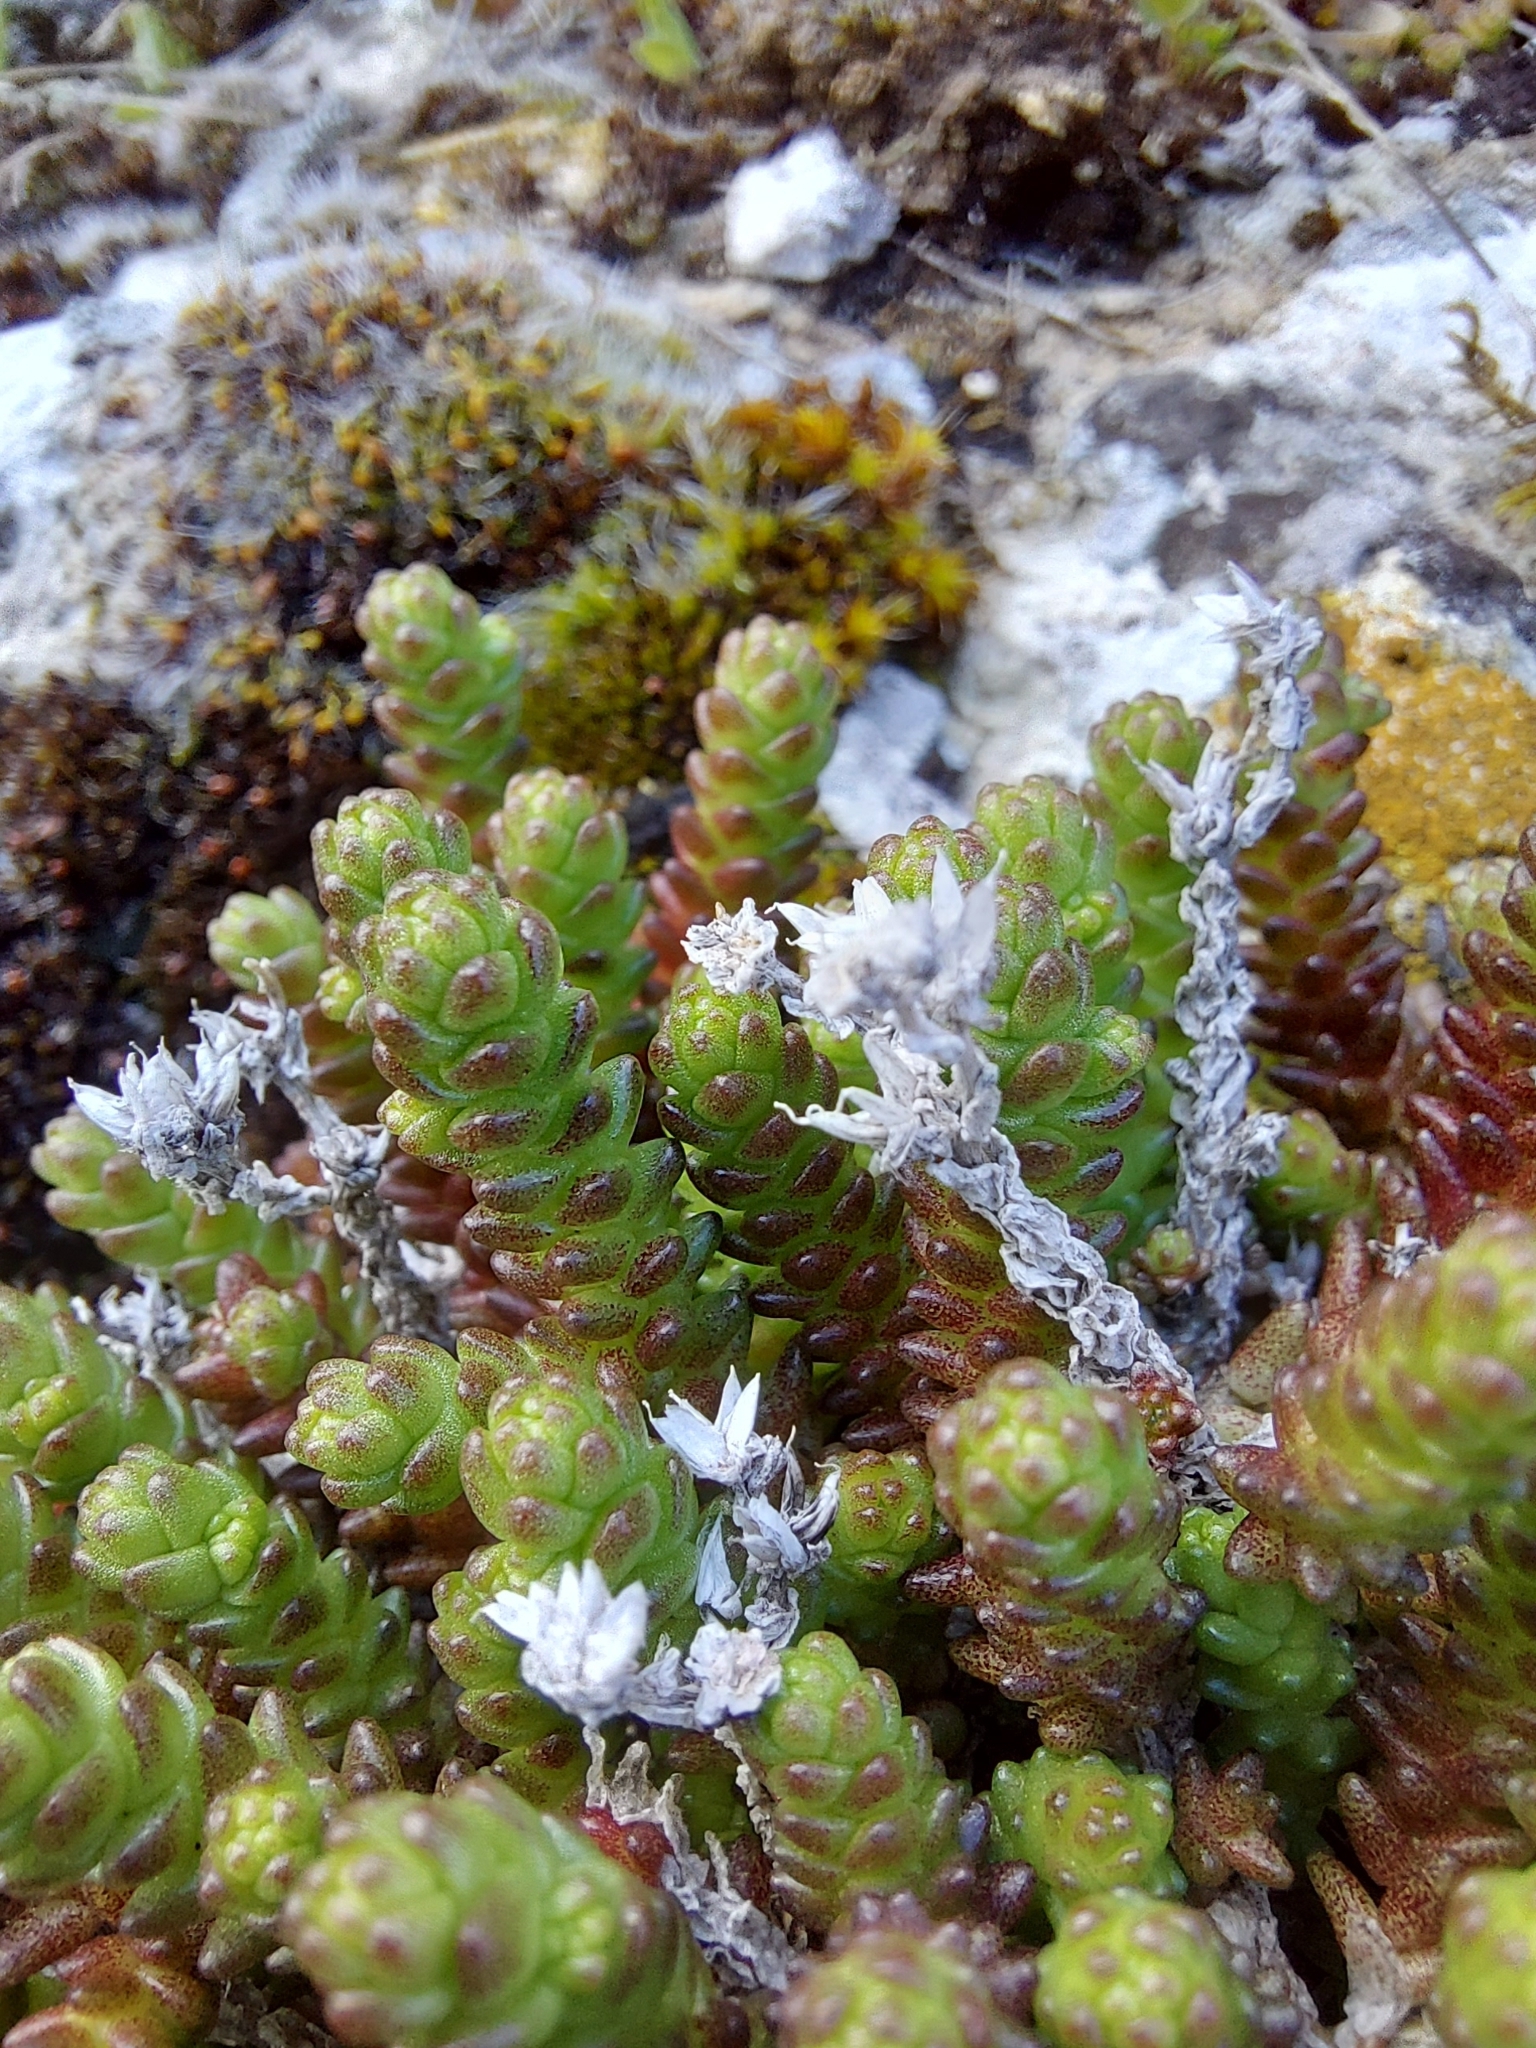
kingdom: Plantae
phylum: Tracheophyta
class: Magnoliopsida
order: Saxifragales
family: Crassulaceae
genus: Sedum
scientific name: Sedum acre
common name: Biting stonecrop
